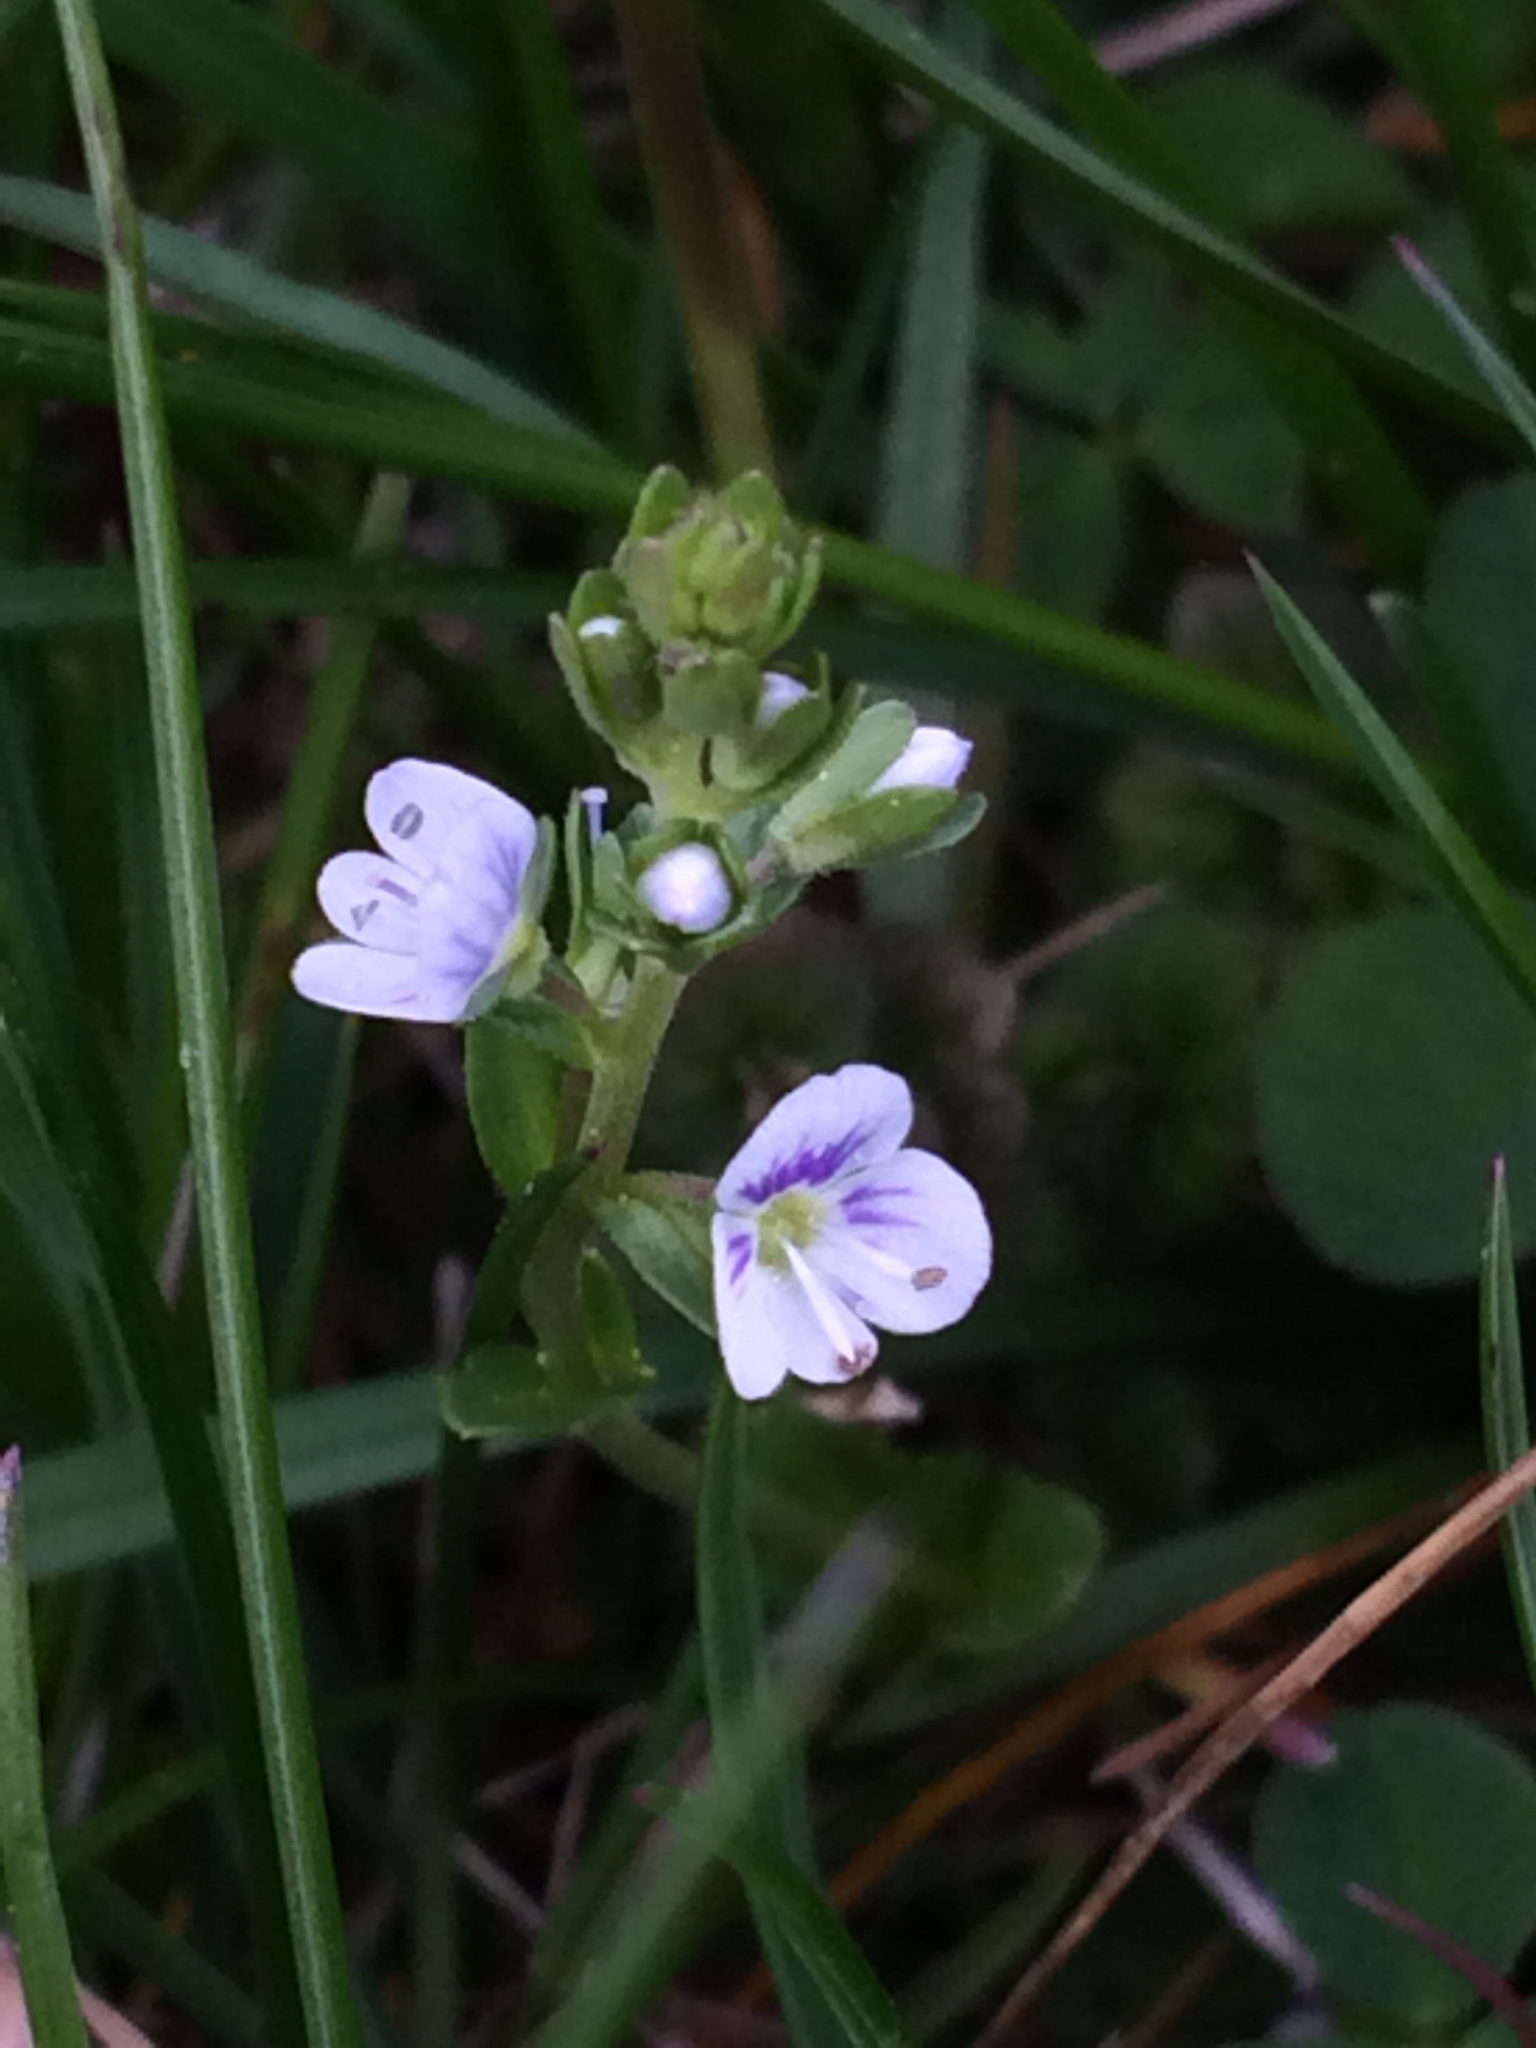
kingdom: Plantae
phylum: Tracheophyta
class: Magnoliopsida
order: Lamiales
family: Plantaginaceae
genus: Veronica
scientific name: Veronica serpyllifolia
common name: Thyme-leaved speedwell
